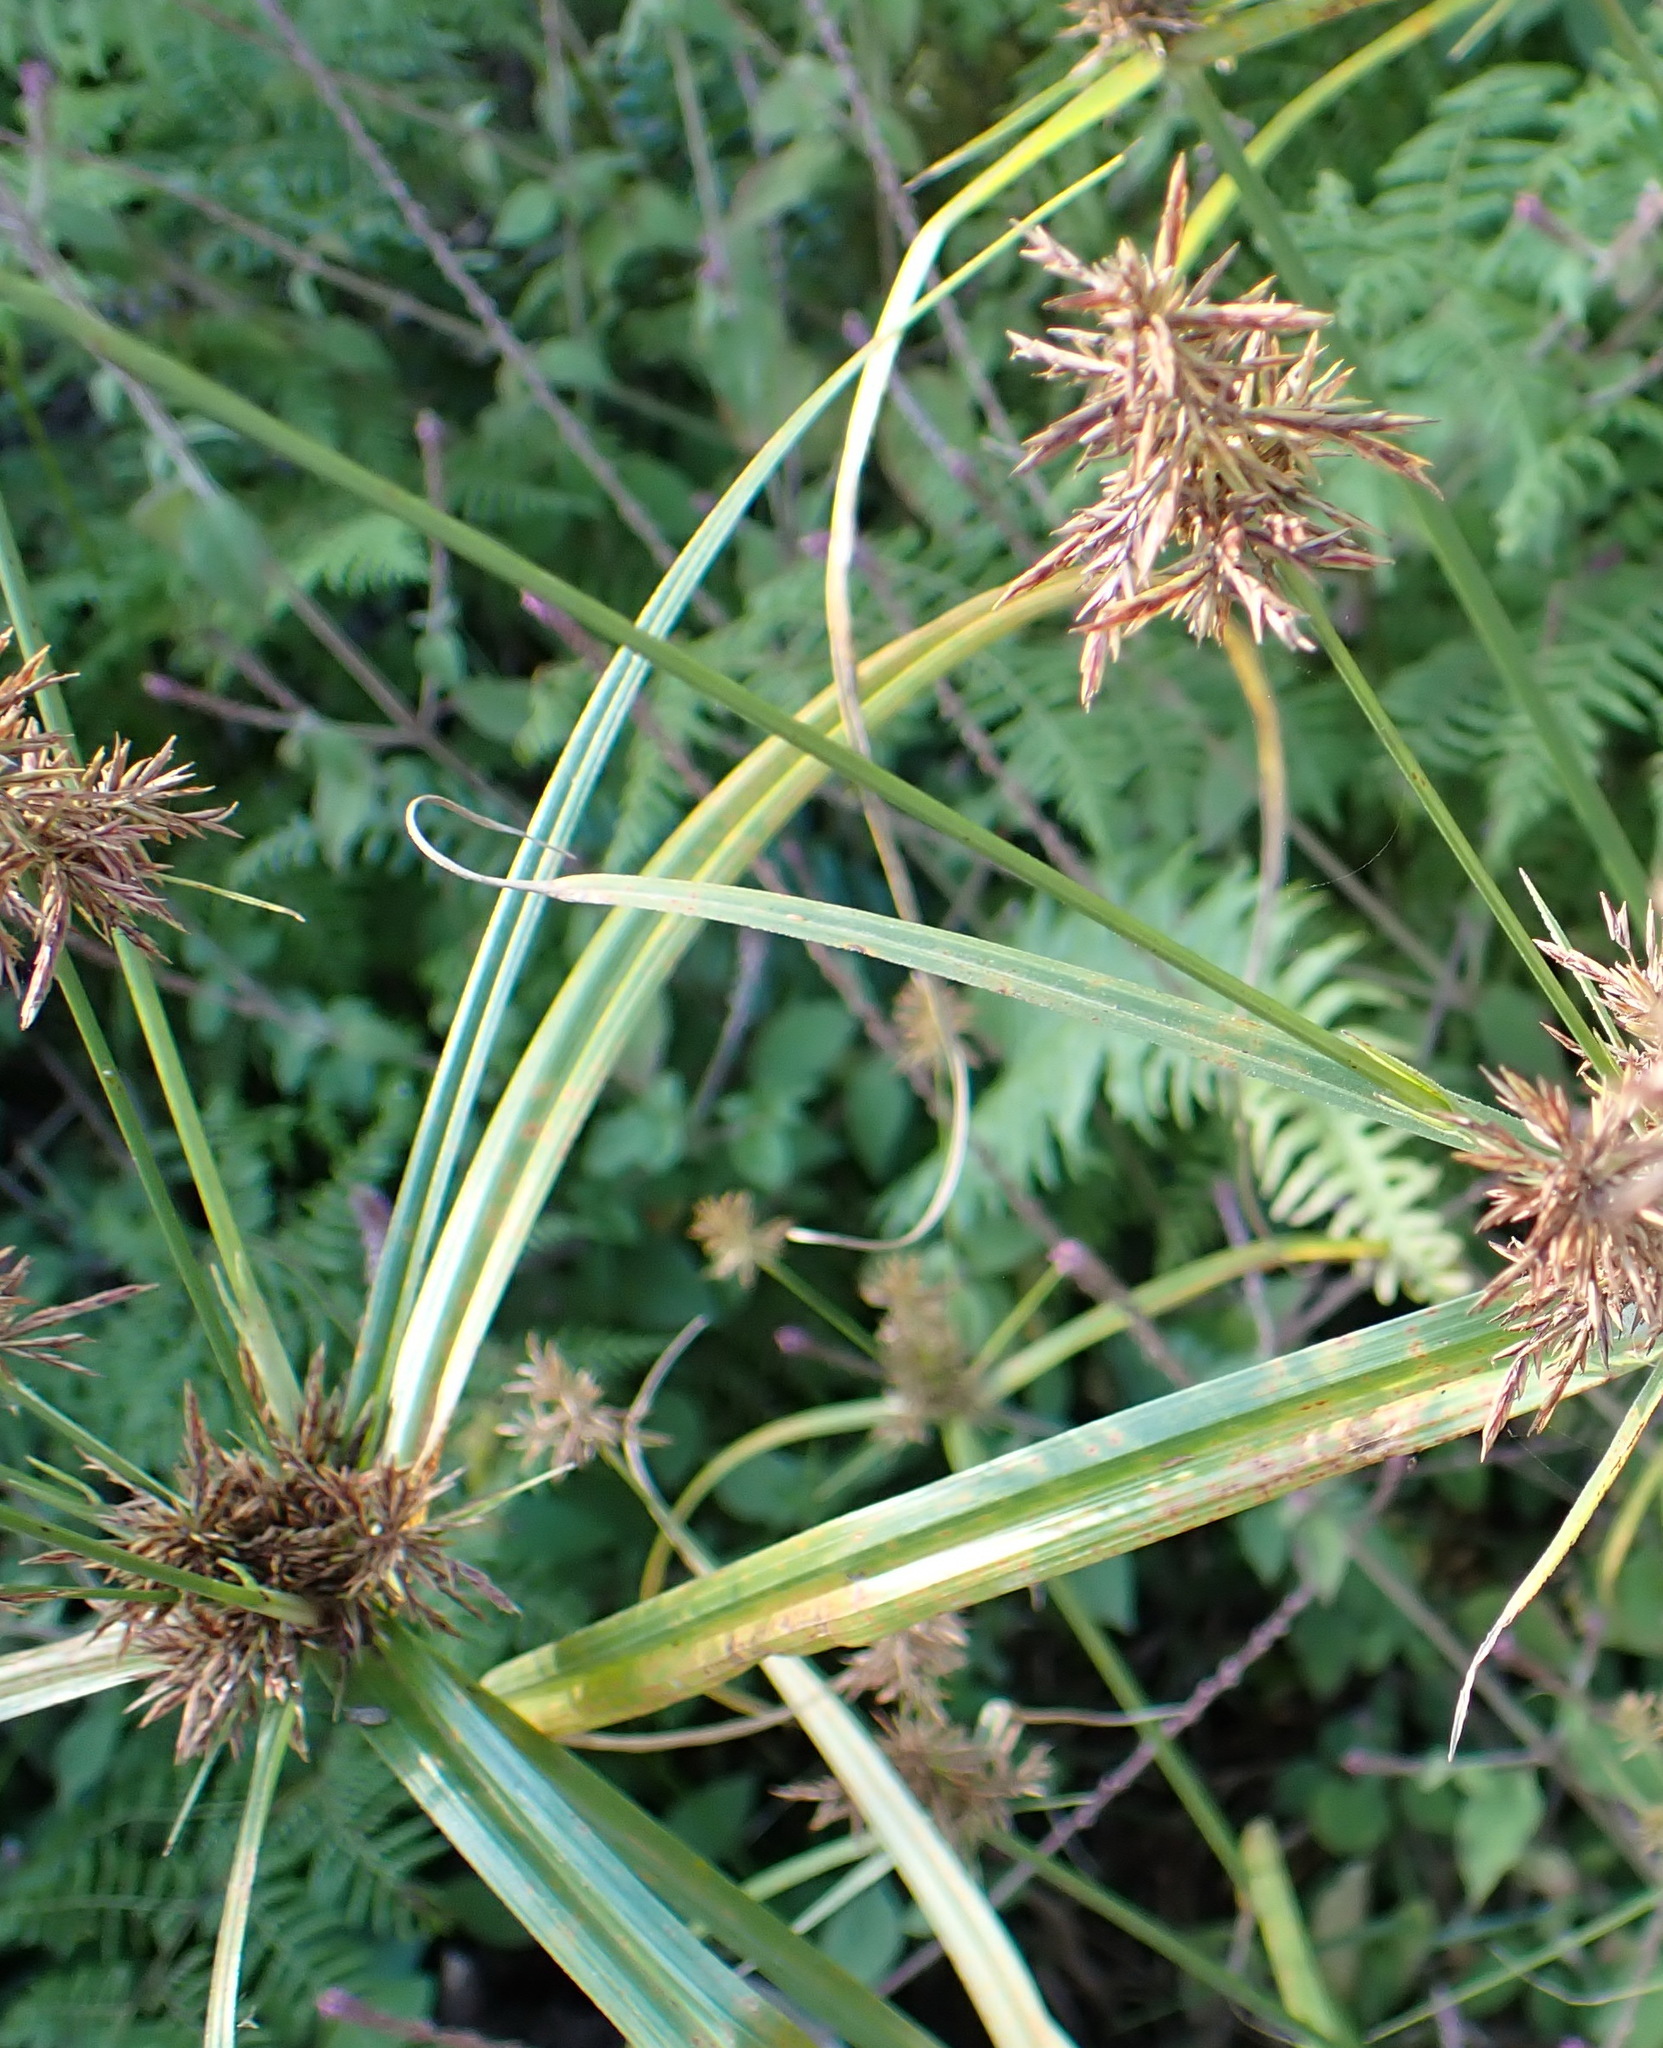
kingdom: Plantae
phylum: Tracheophyta
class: Liliopsida
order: Poales
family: Cyperaceae
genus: Cyperus
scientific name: Cyperus congestus
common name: Dense flat sedge
